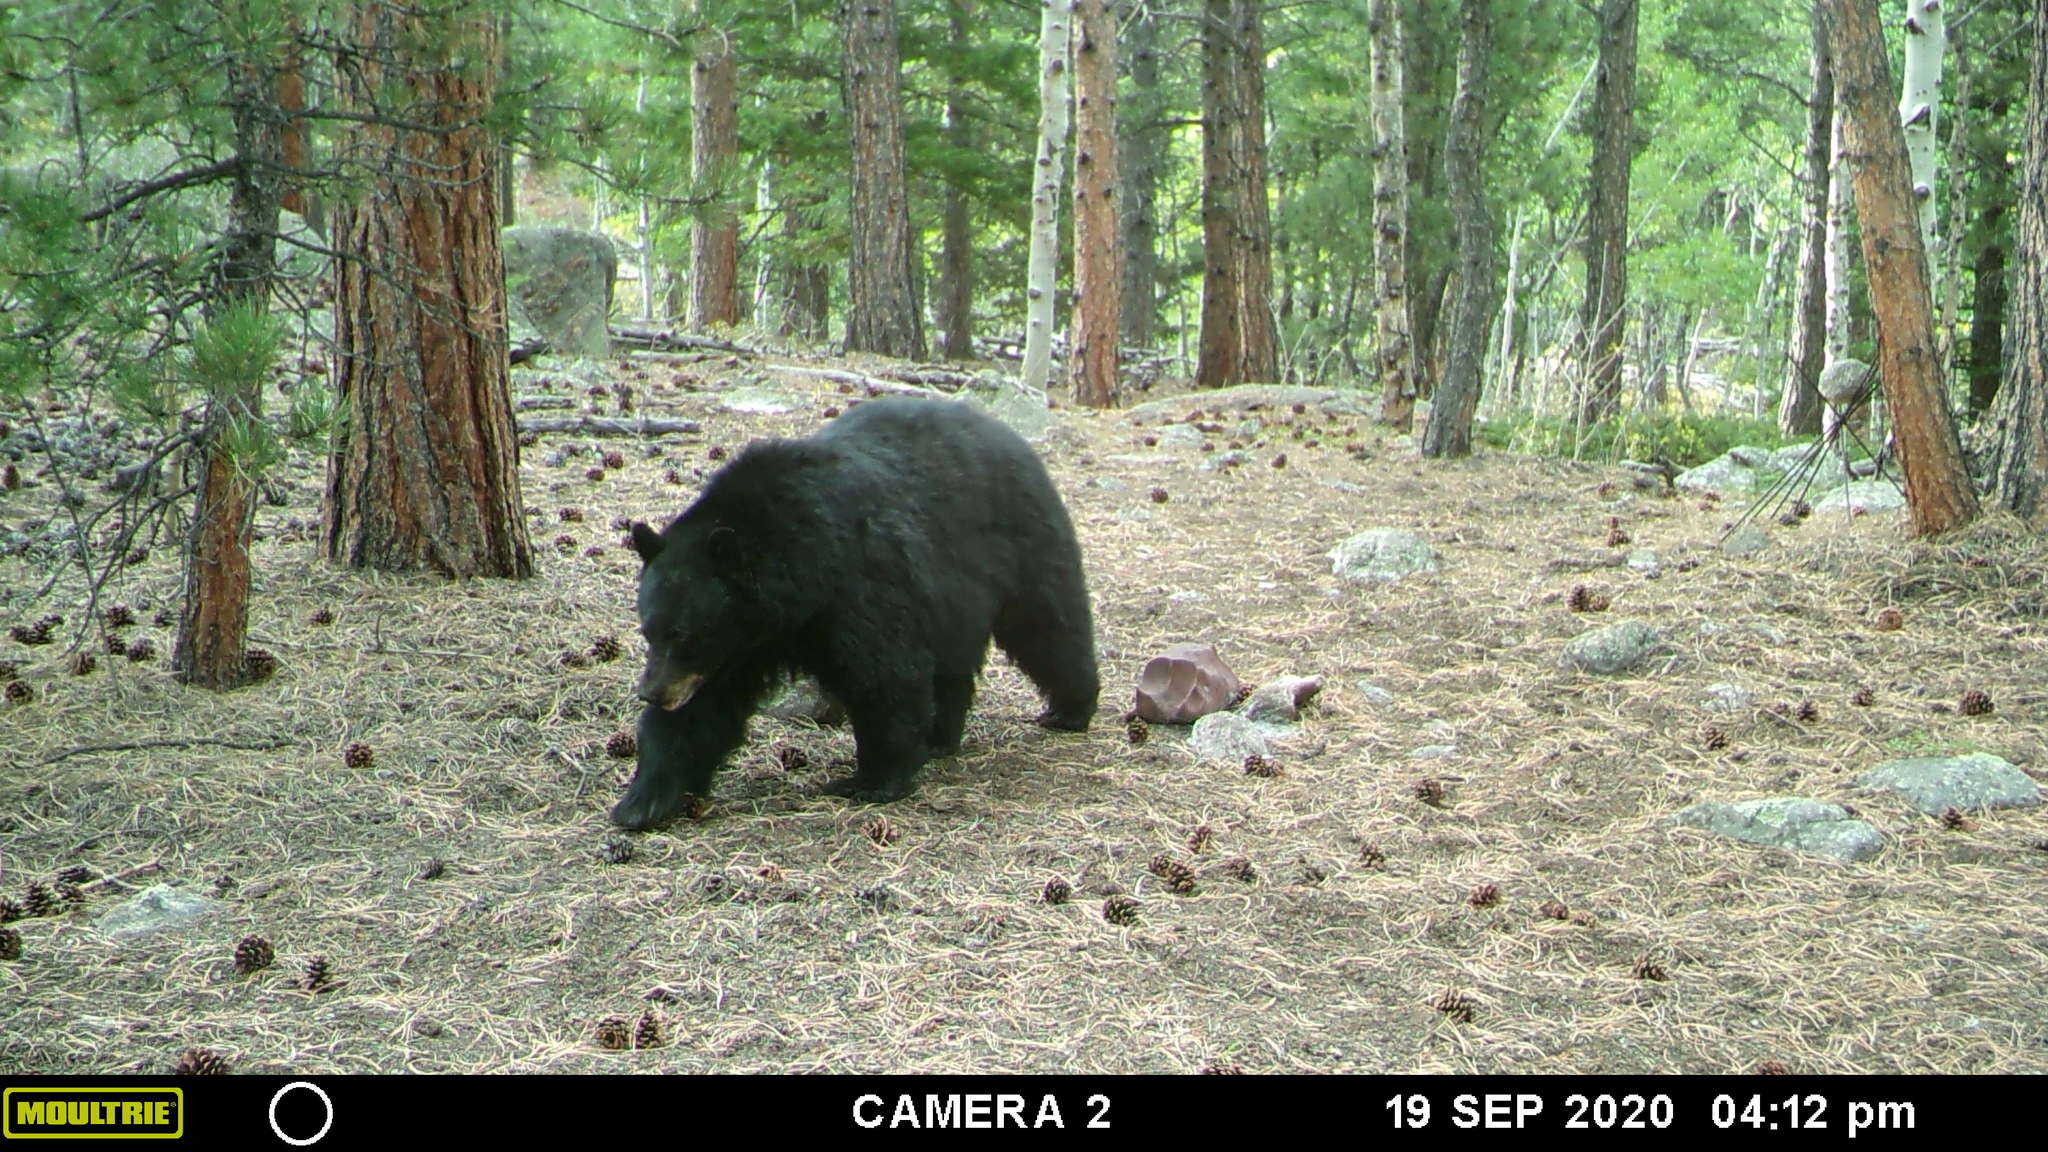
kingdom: Animalia
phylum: Chordata
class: Mammalia
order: Carnivora
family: Ursidae
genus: Ursus
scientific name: Ursus americanus
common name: American black bear
